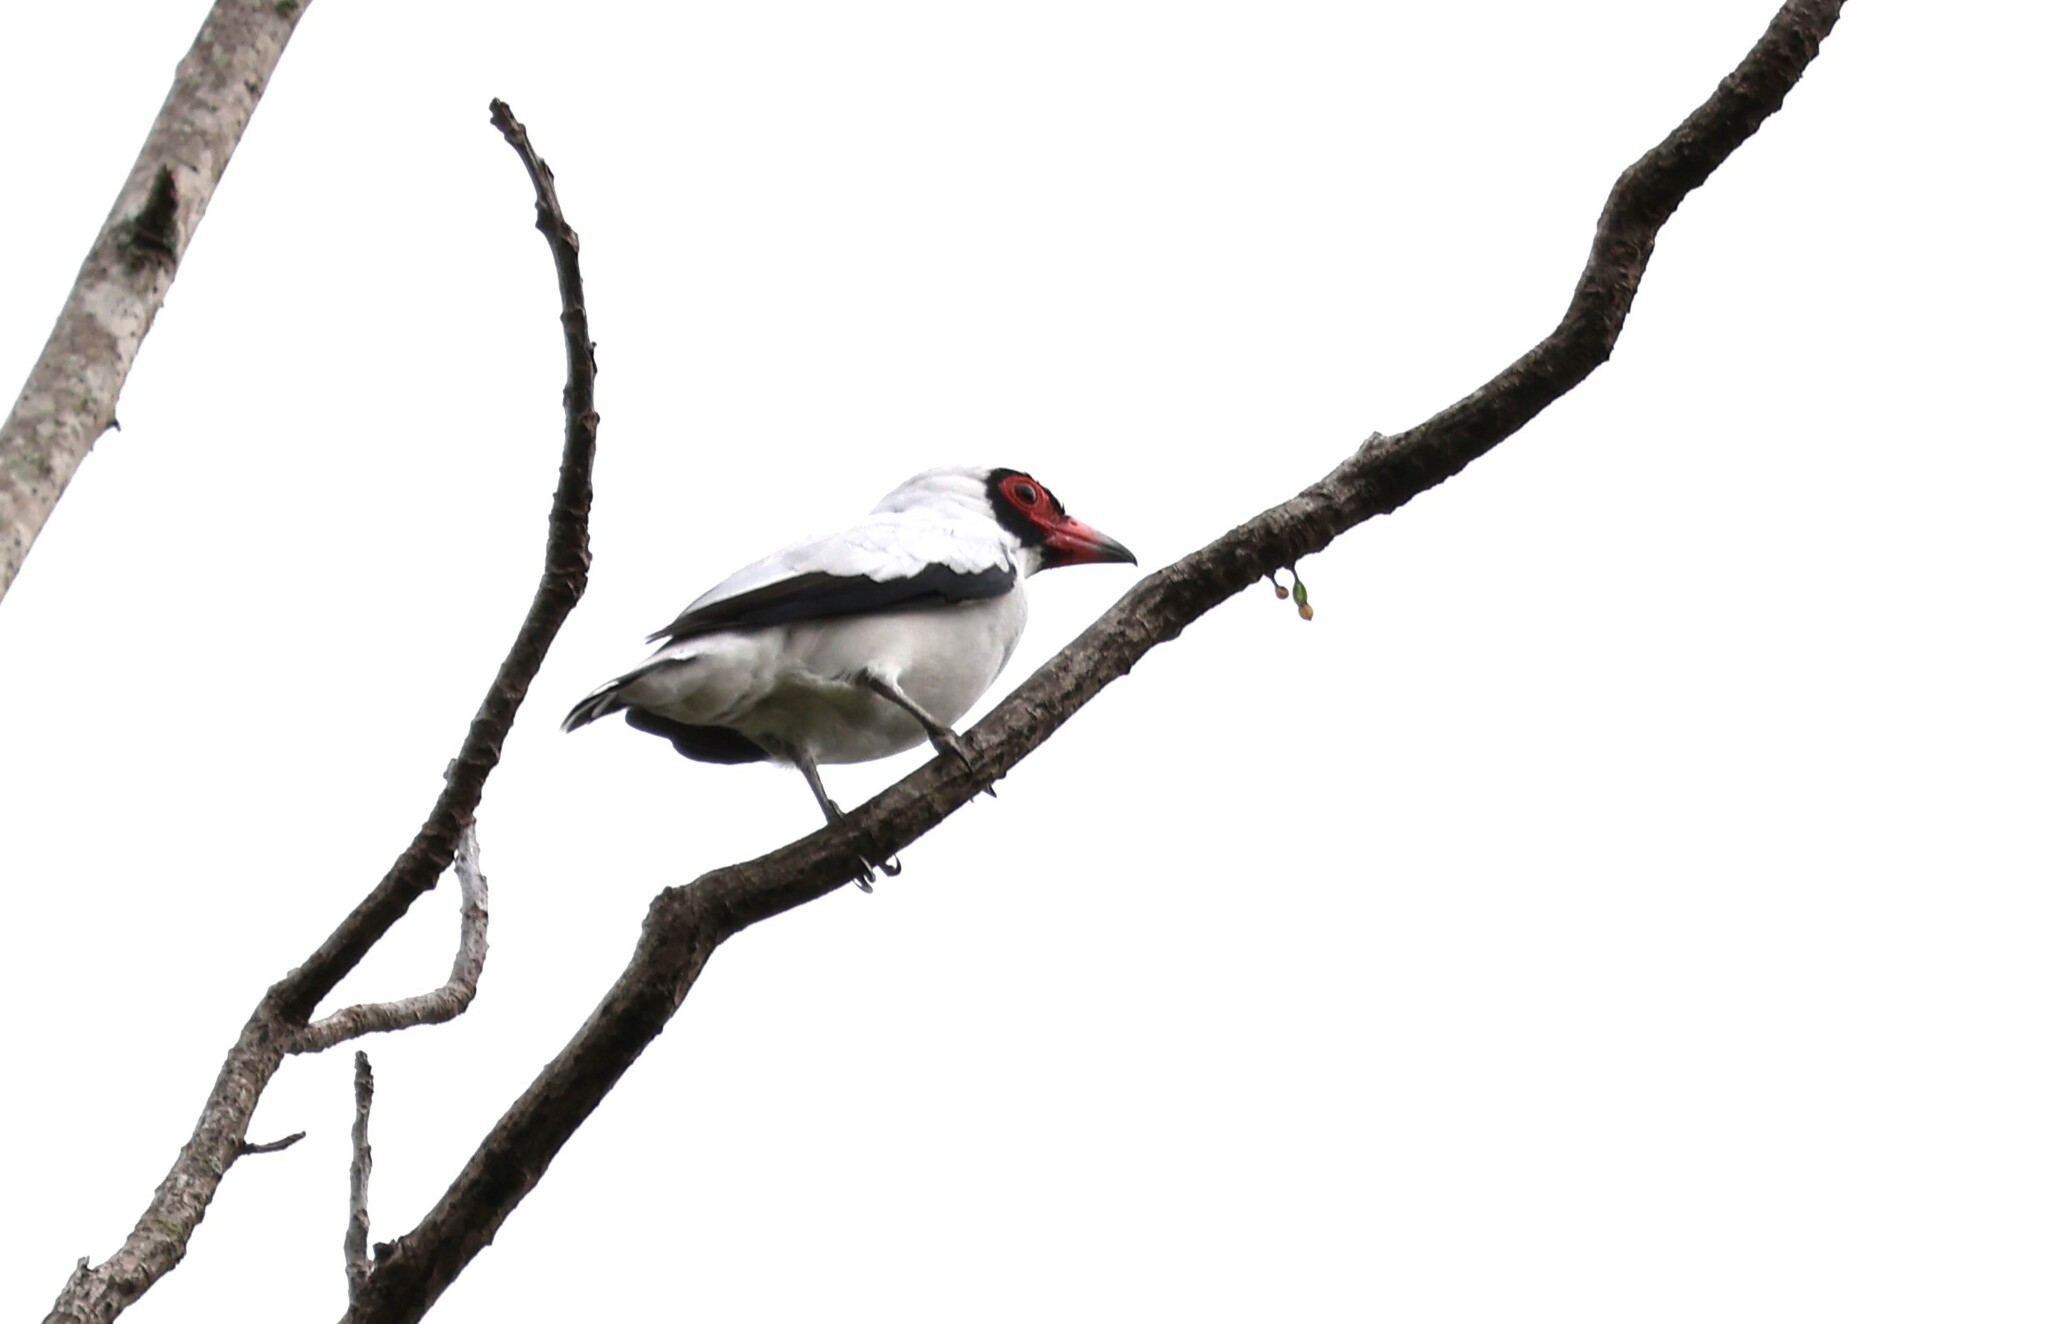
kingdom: Animalia
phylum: Chordata
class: Aves
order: Passeriformes
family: Cotingidae
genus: Tityra
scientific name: Tityra semifasciata
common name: Masked tityra
